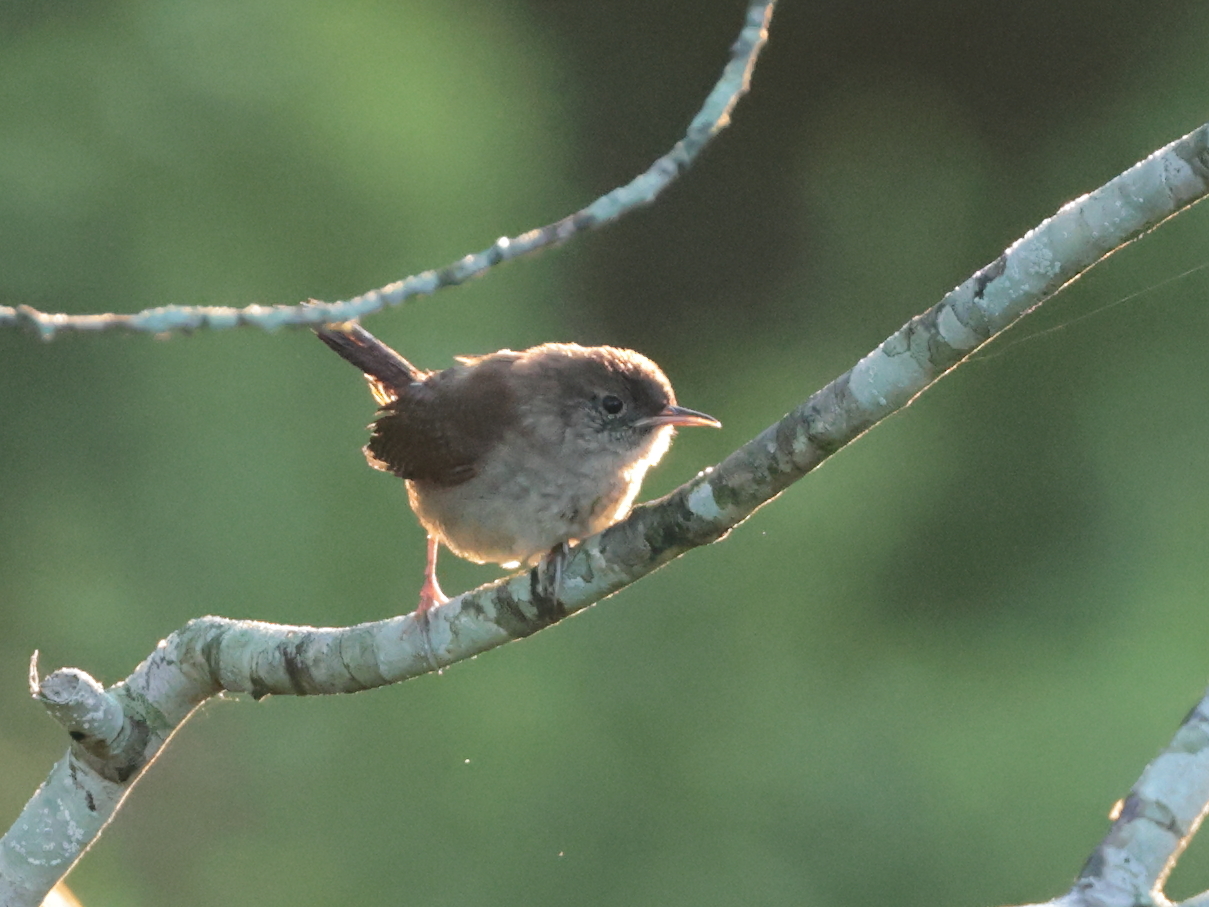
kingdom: Animalia
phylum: Chordata
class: Aves
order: Passeriformes
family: Troglodytidae
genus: Troglodytes
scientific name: Troglodytes aedon
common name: House wren
